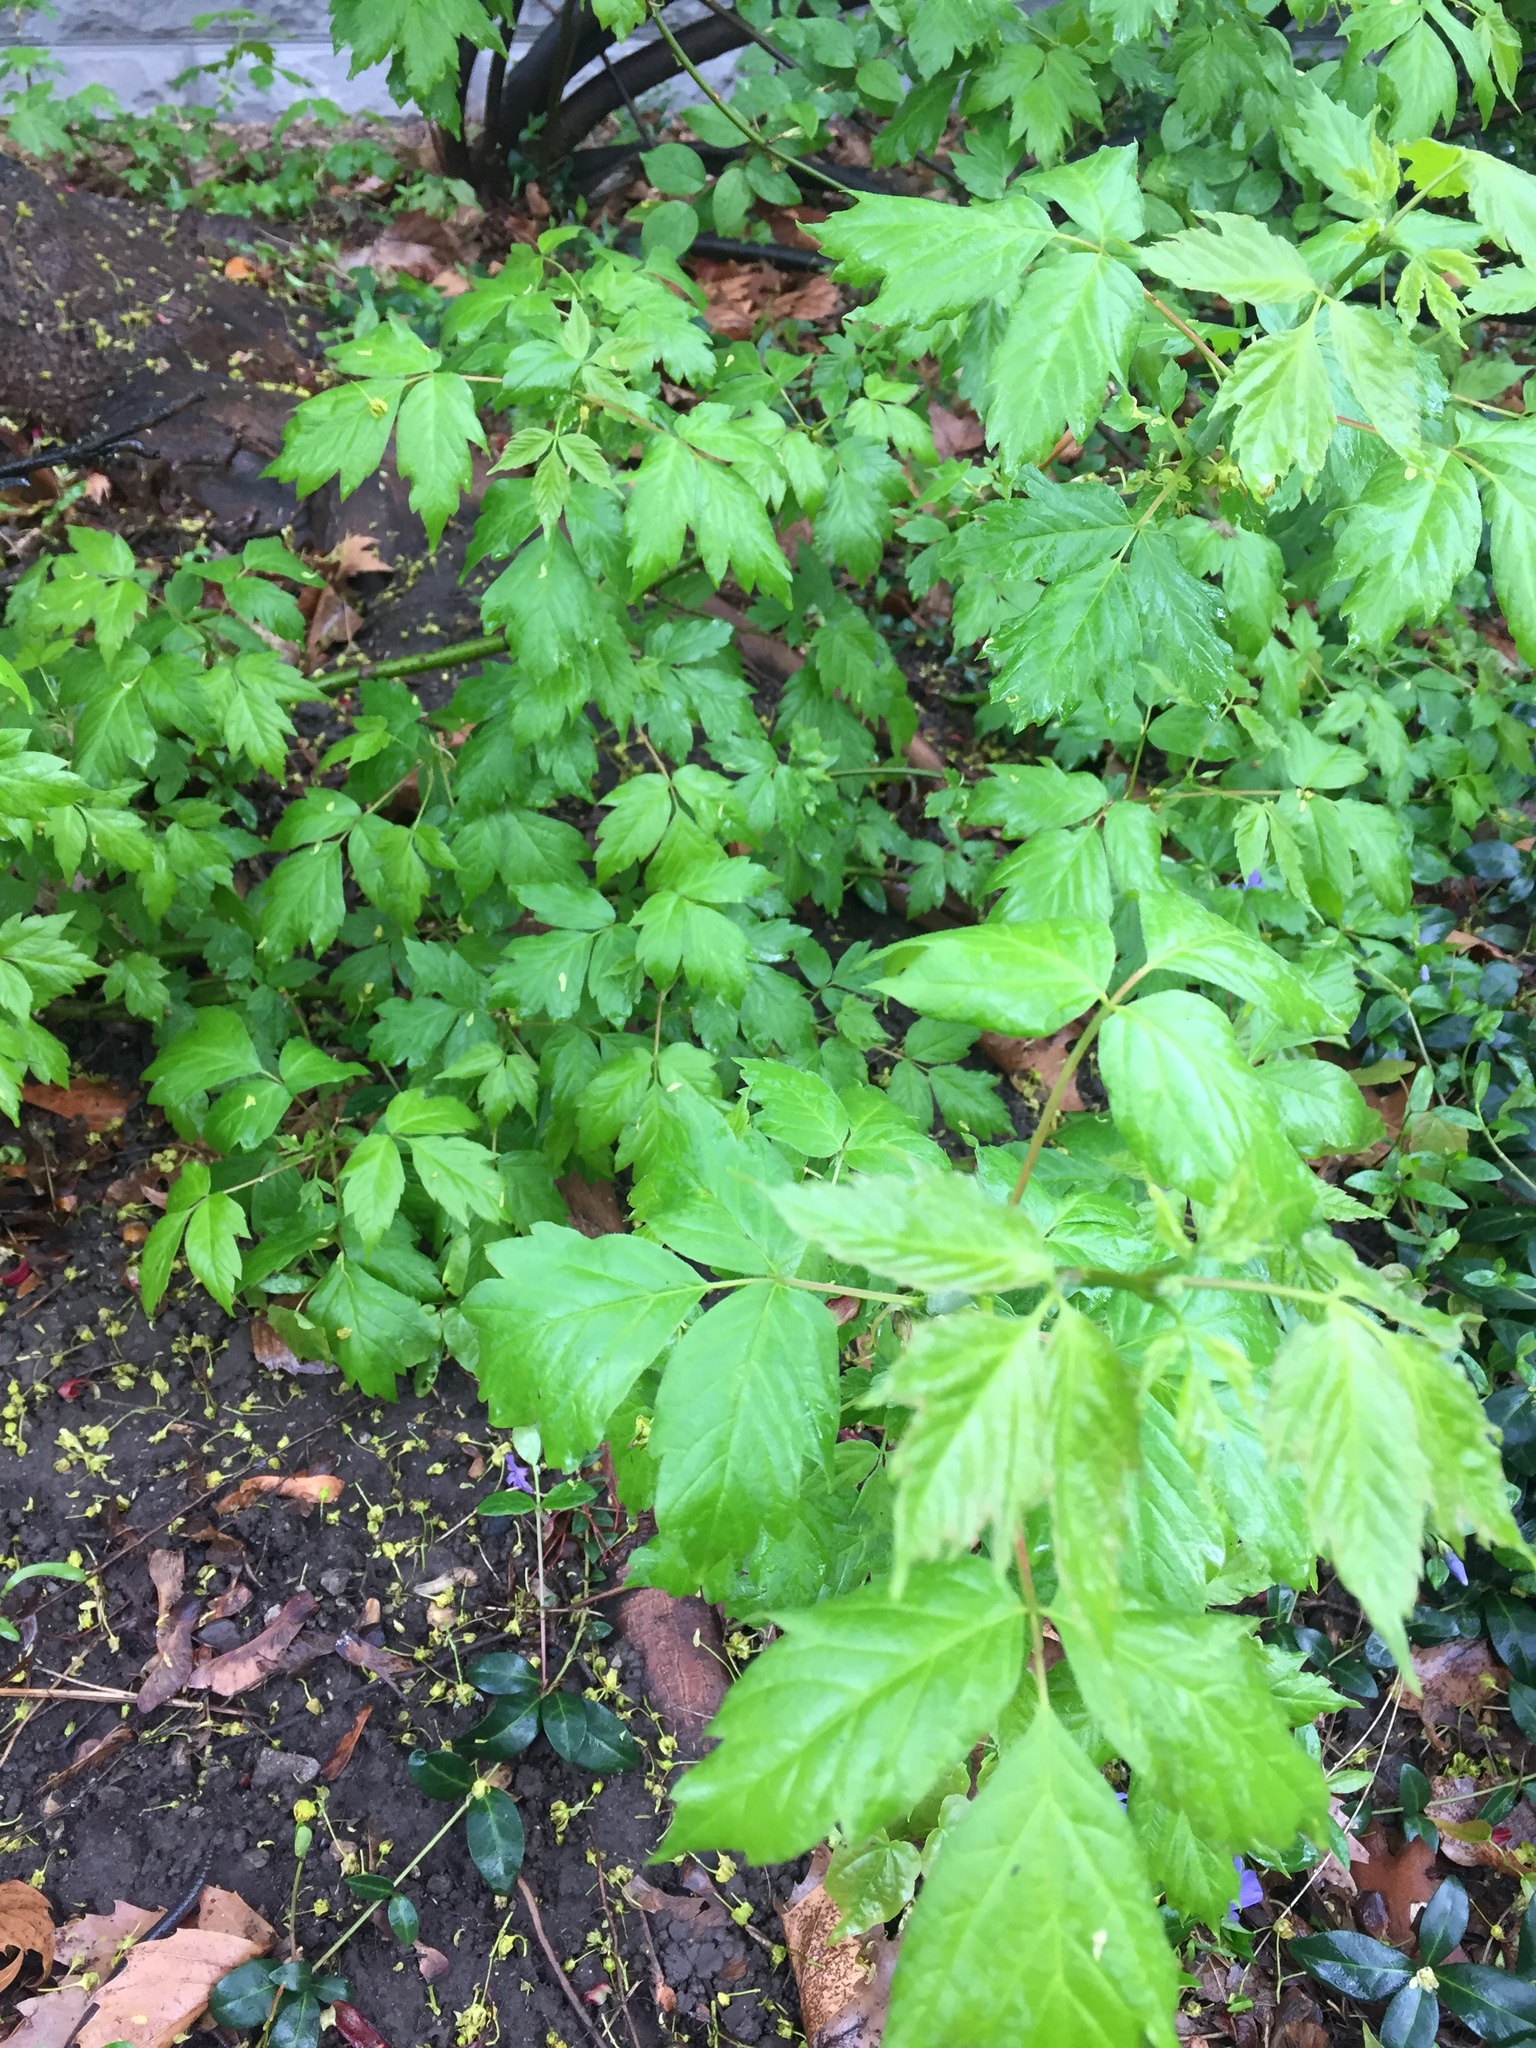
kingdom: Plantae
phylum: Tracheophyta
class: Magnoliopsida
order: Sapindales
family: Sapindaceae
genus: Acer
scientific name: Acer negundo
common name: Ashleaf maple
